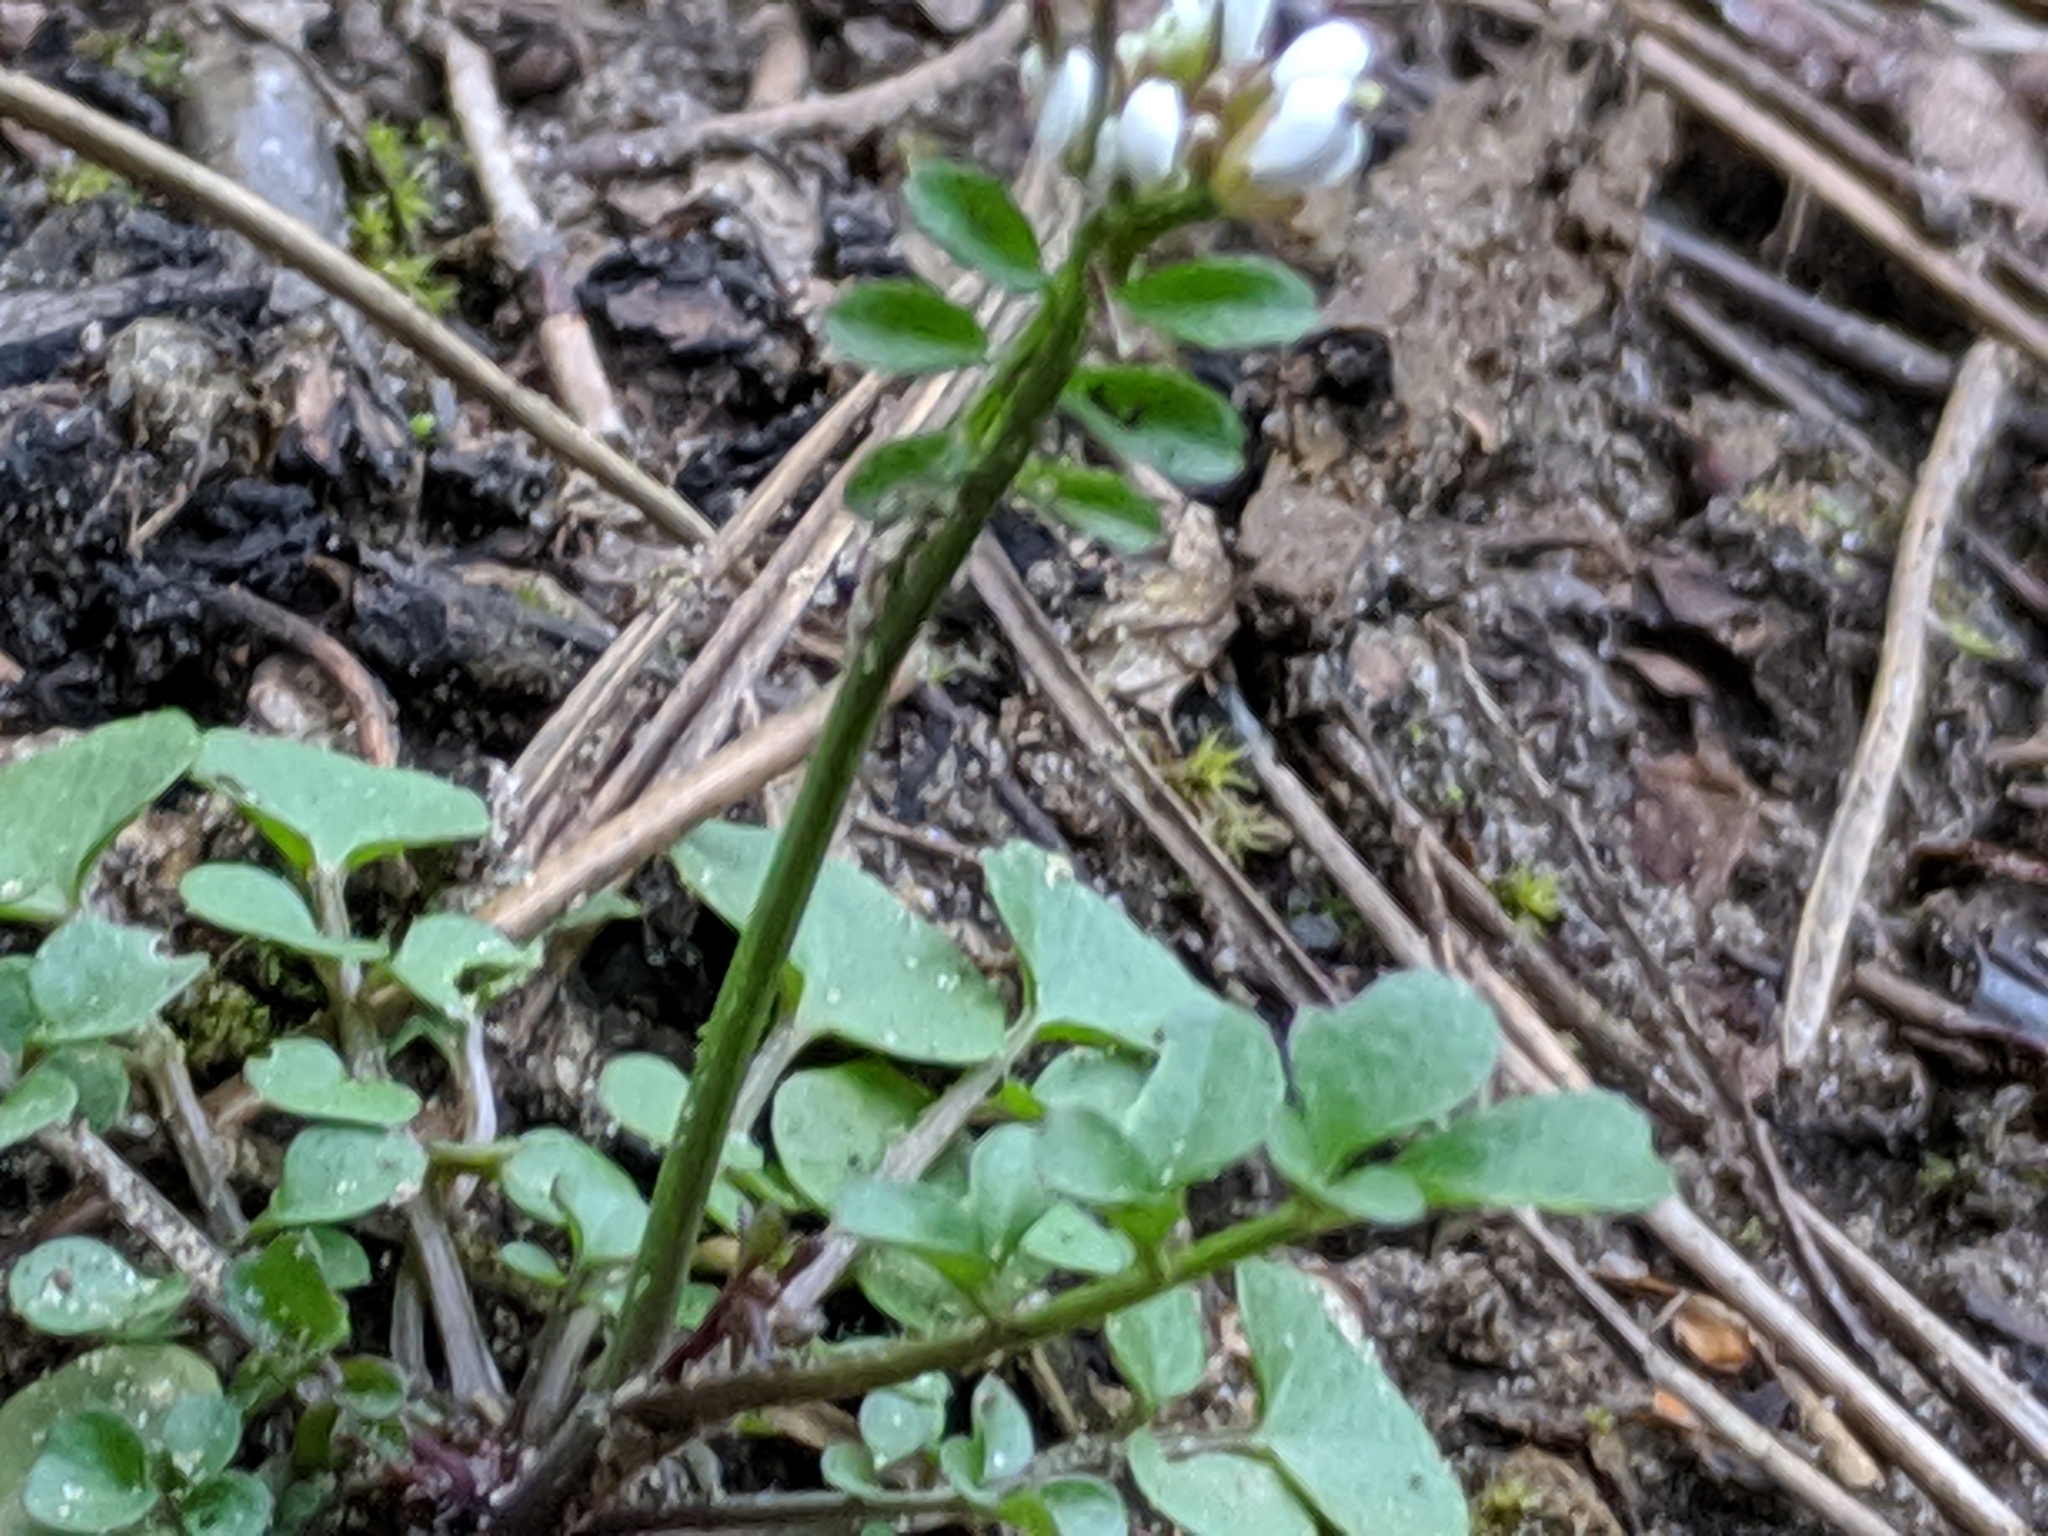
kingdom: Plantae
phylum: Tracheophyta
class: Magnoliopsida
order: Brassicales
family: Brassicaceae
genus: Cardamine
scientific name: Cardamine hirsuta
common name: Hairy bittercress
